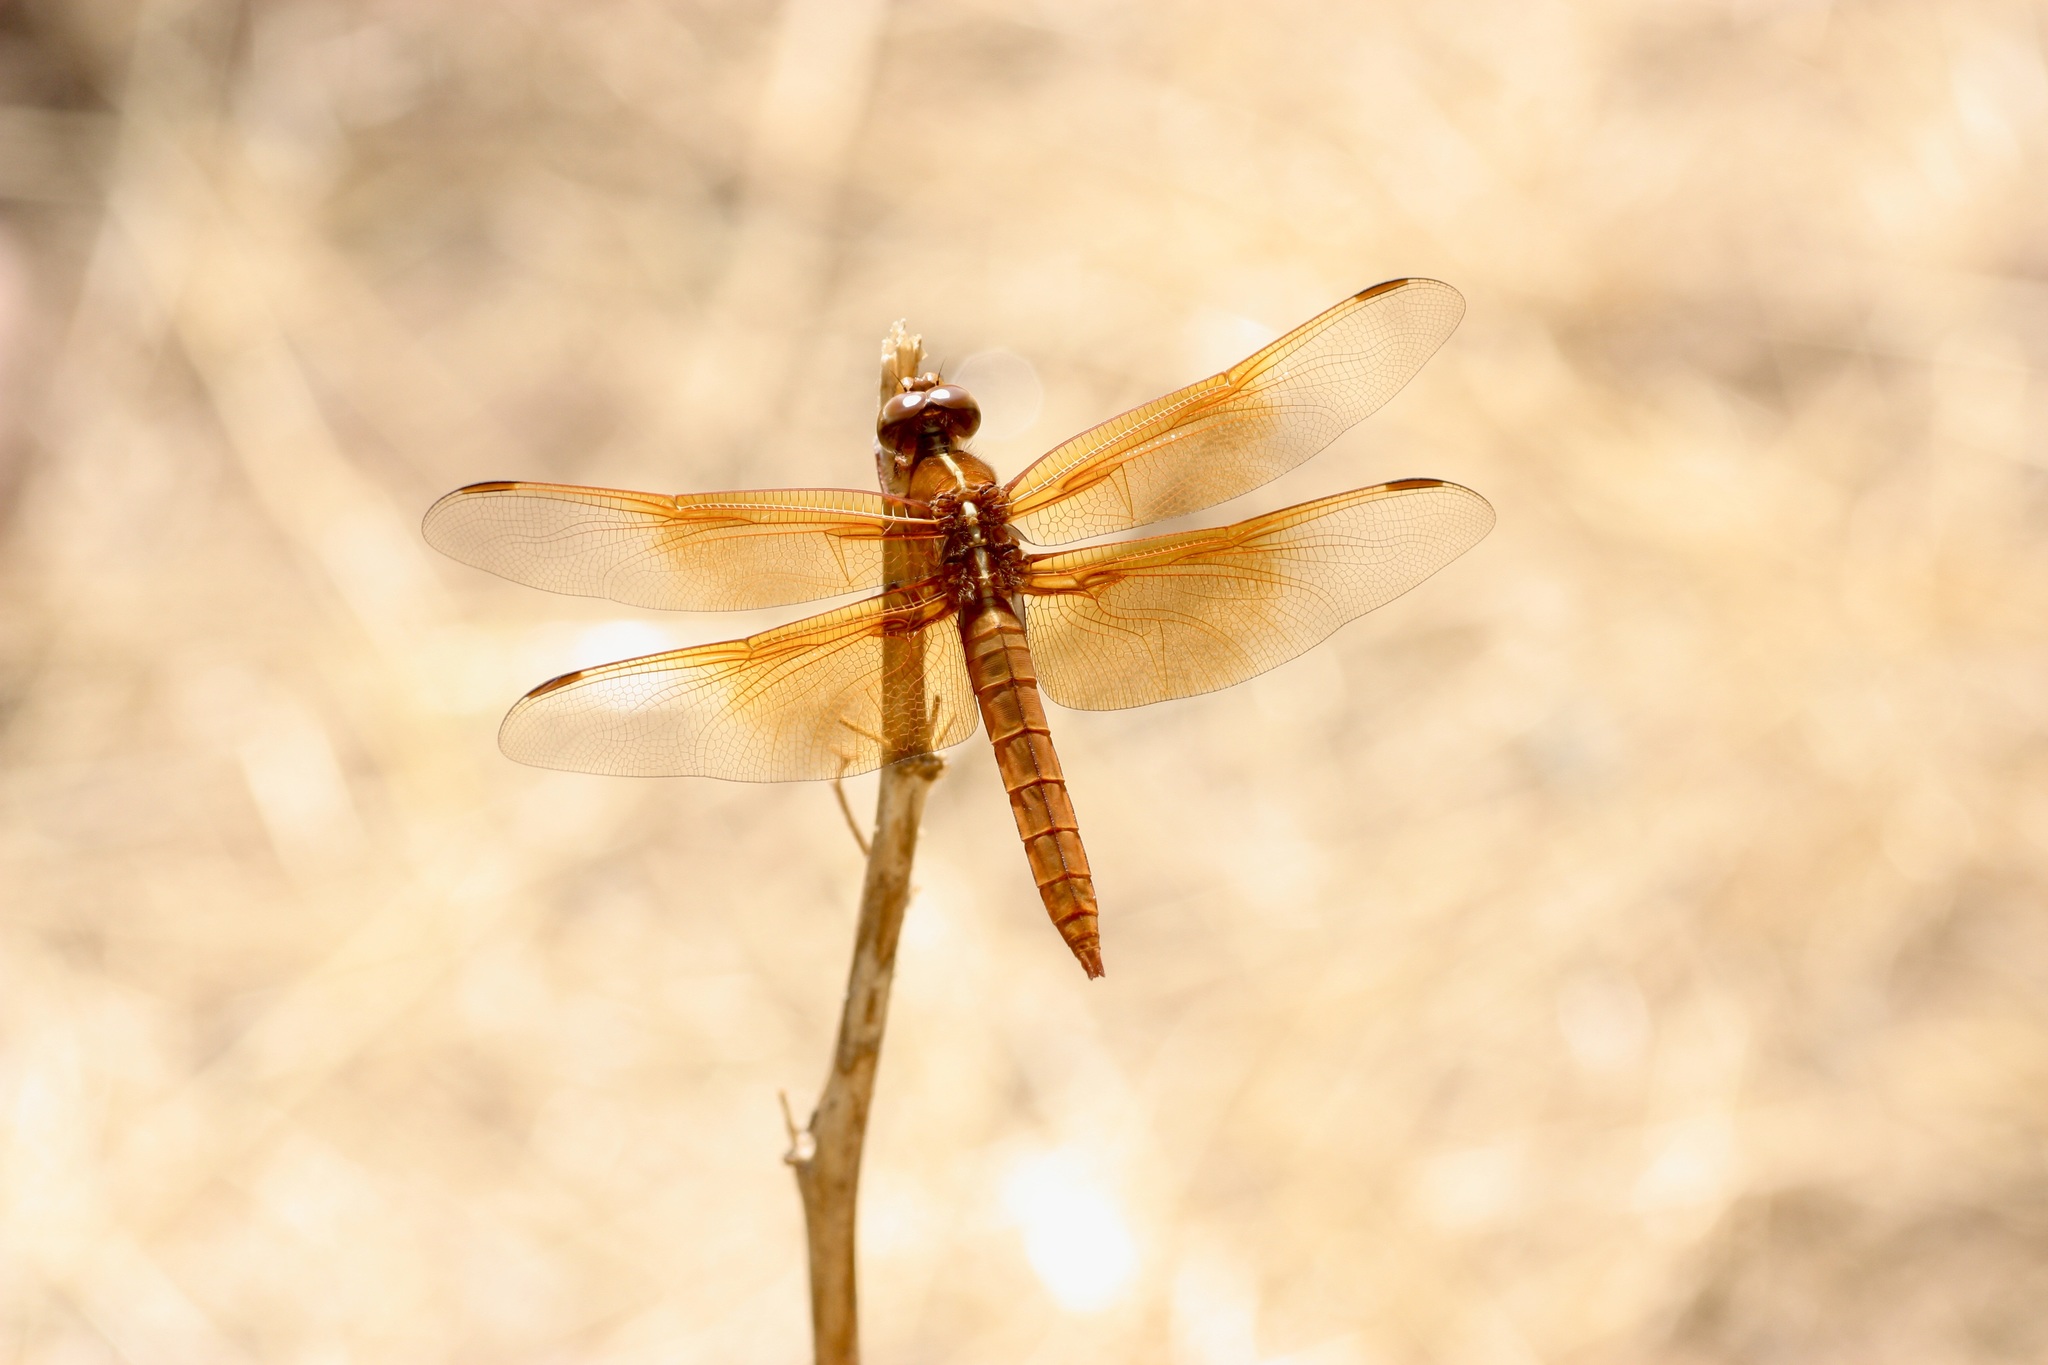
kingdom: Animalia
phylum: Arthropoda
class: Insecta
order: Odonata
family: Libellulidae
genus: Libellula
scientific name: Libellula saturata
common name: Flame skimmer
